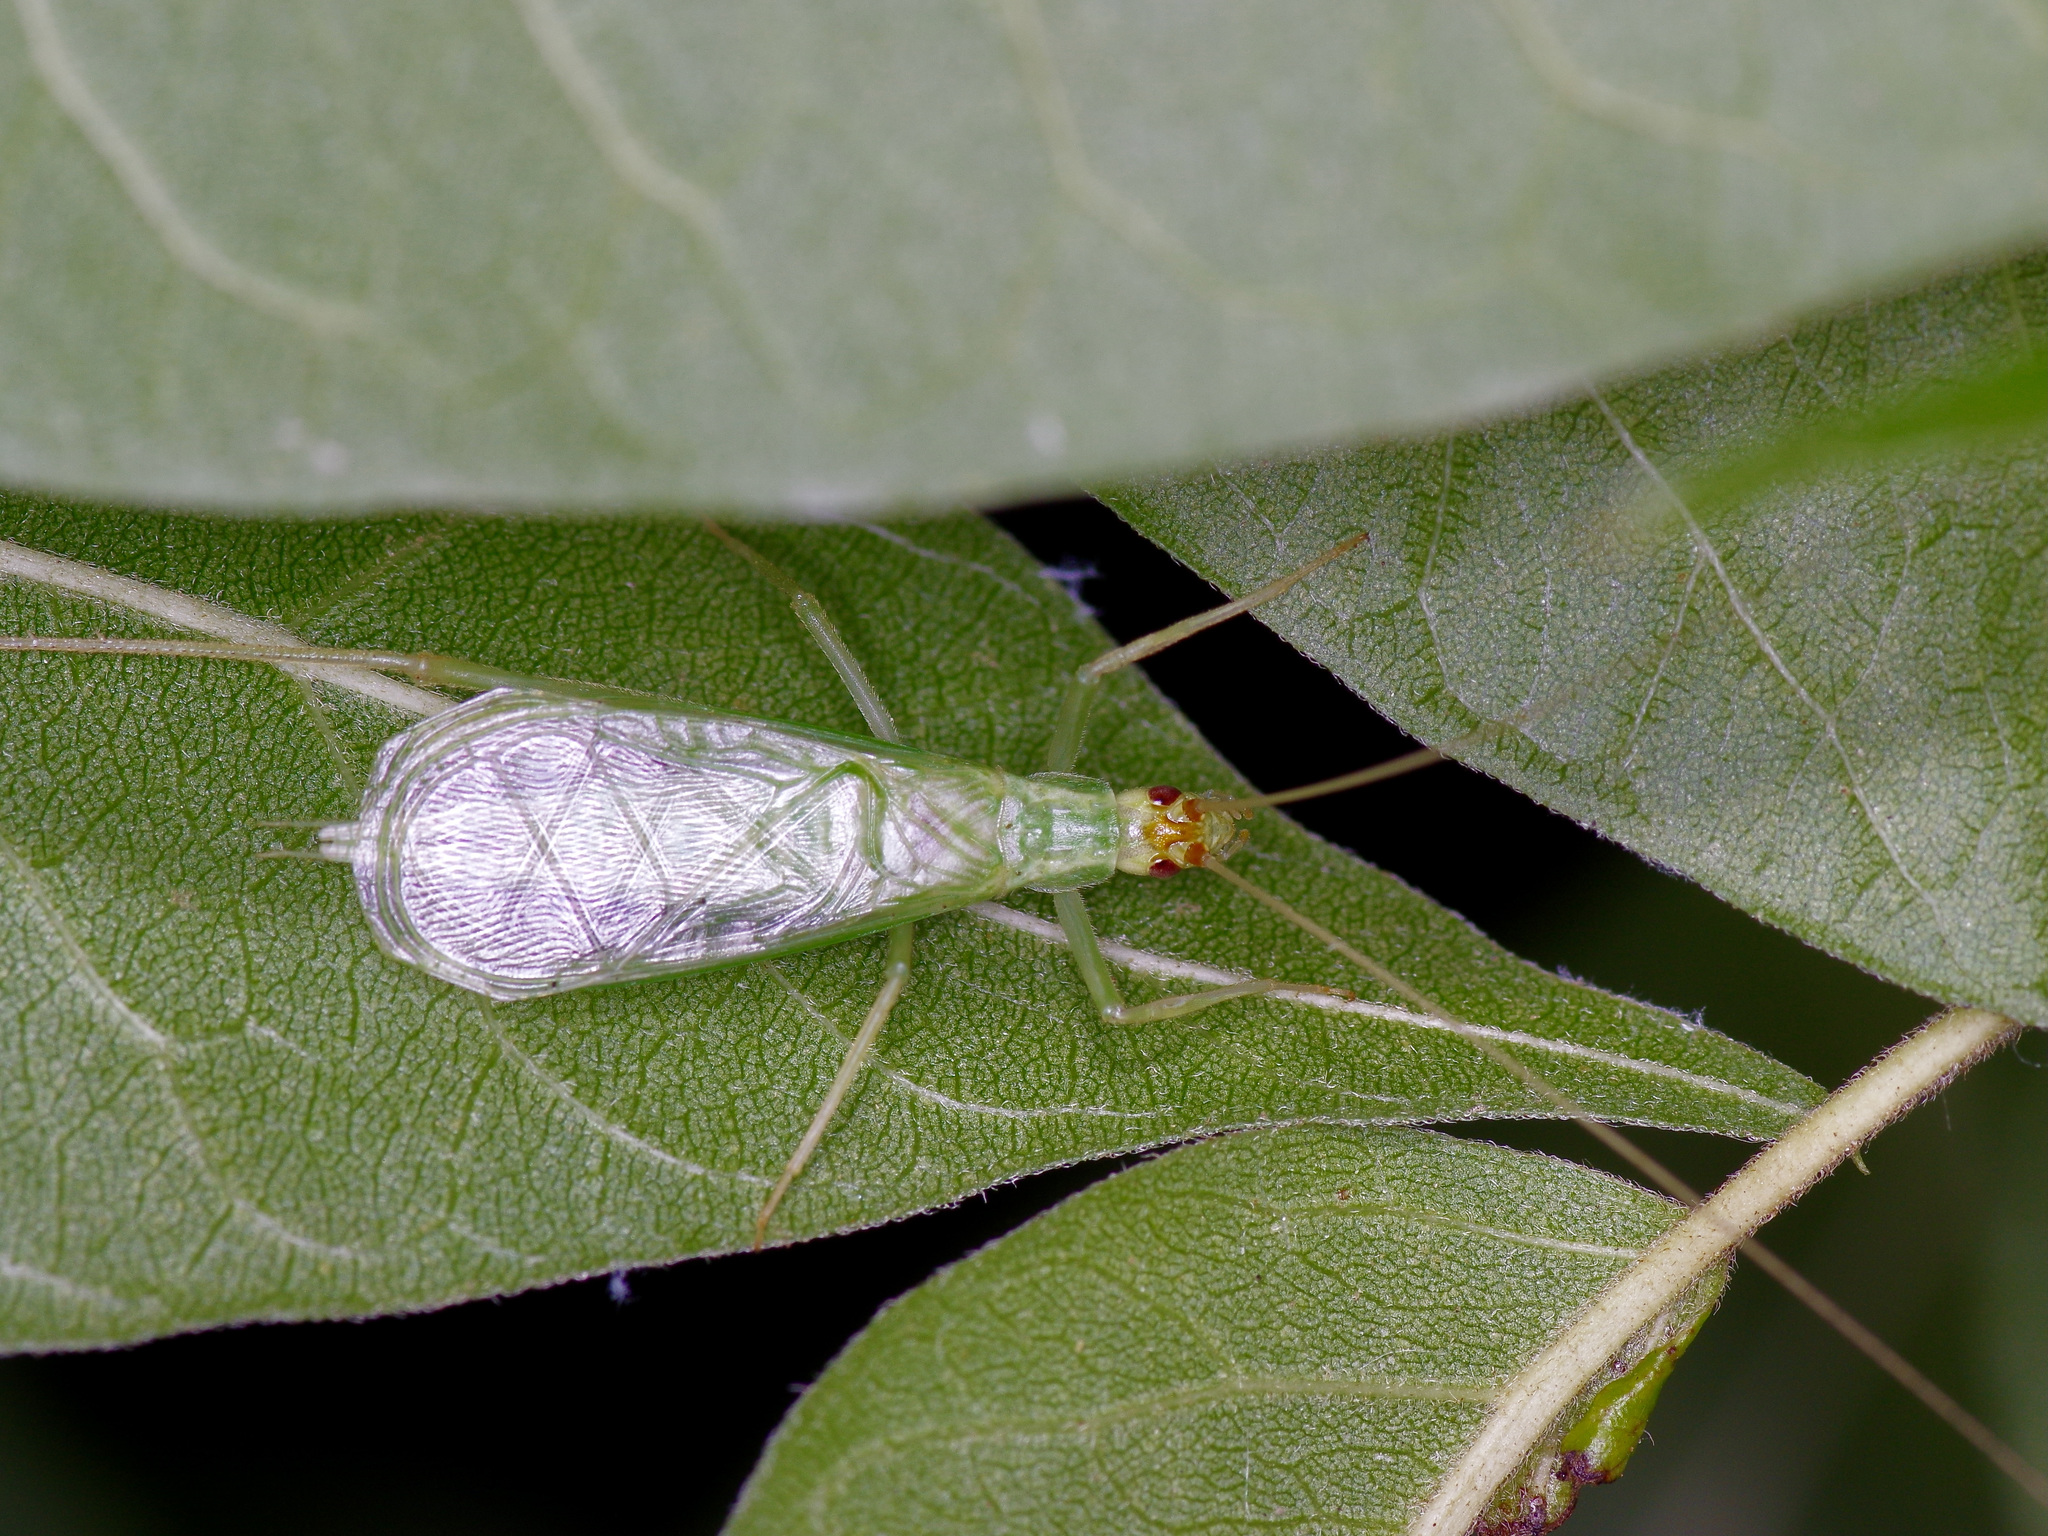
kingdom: Animalia
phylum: Arthropoda
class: Insecta
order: Orthoptera
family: Gryllidae
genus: Oecanthus
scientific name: Oecanthus fultoni
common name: Snowy tree cricket
